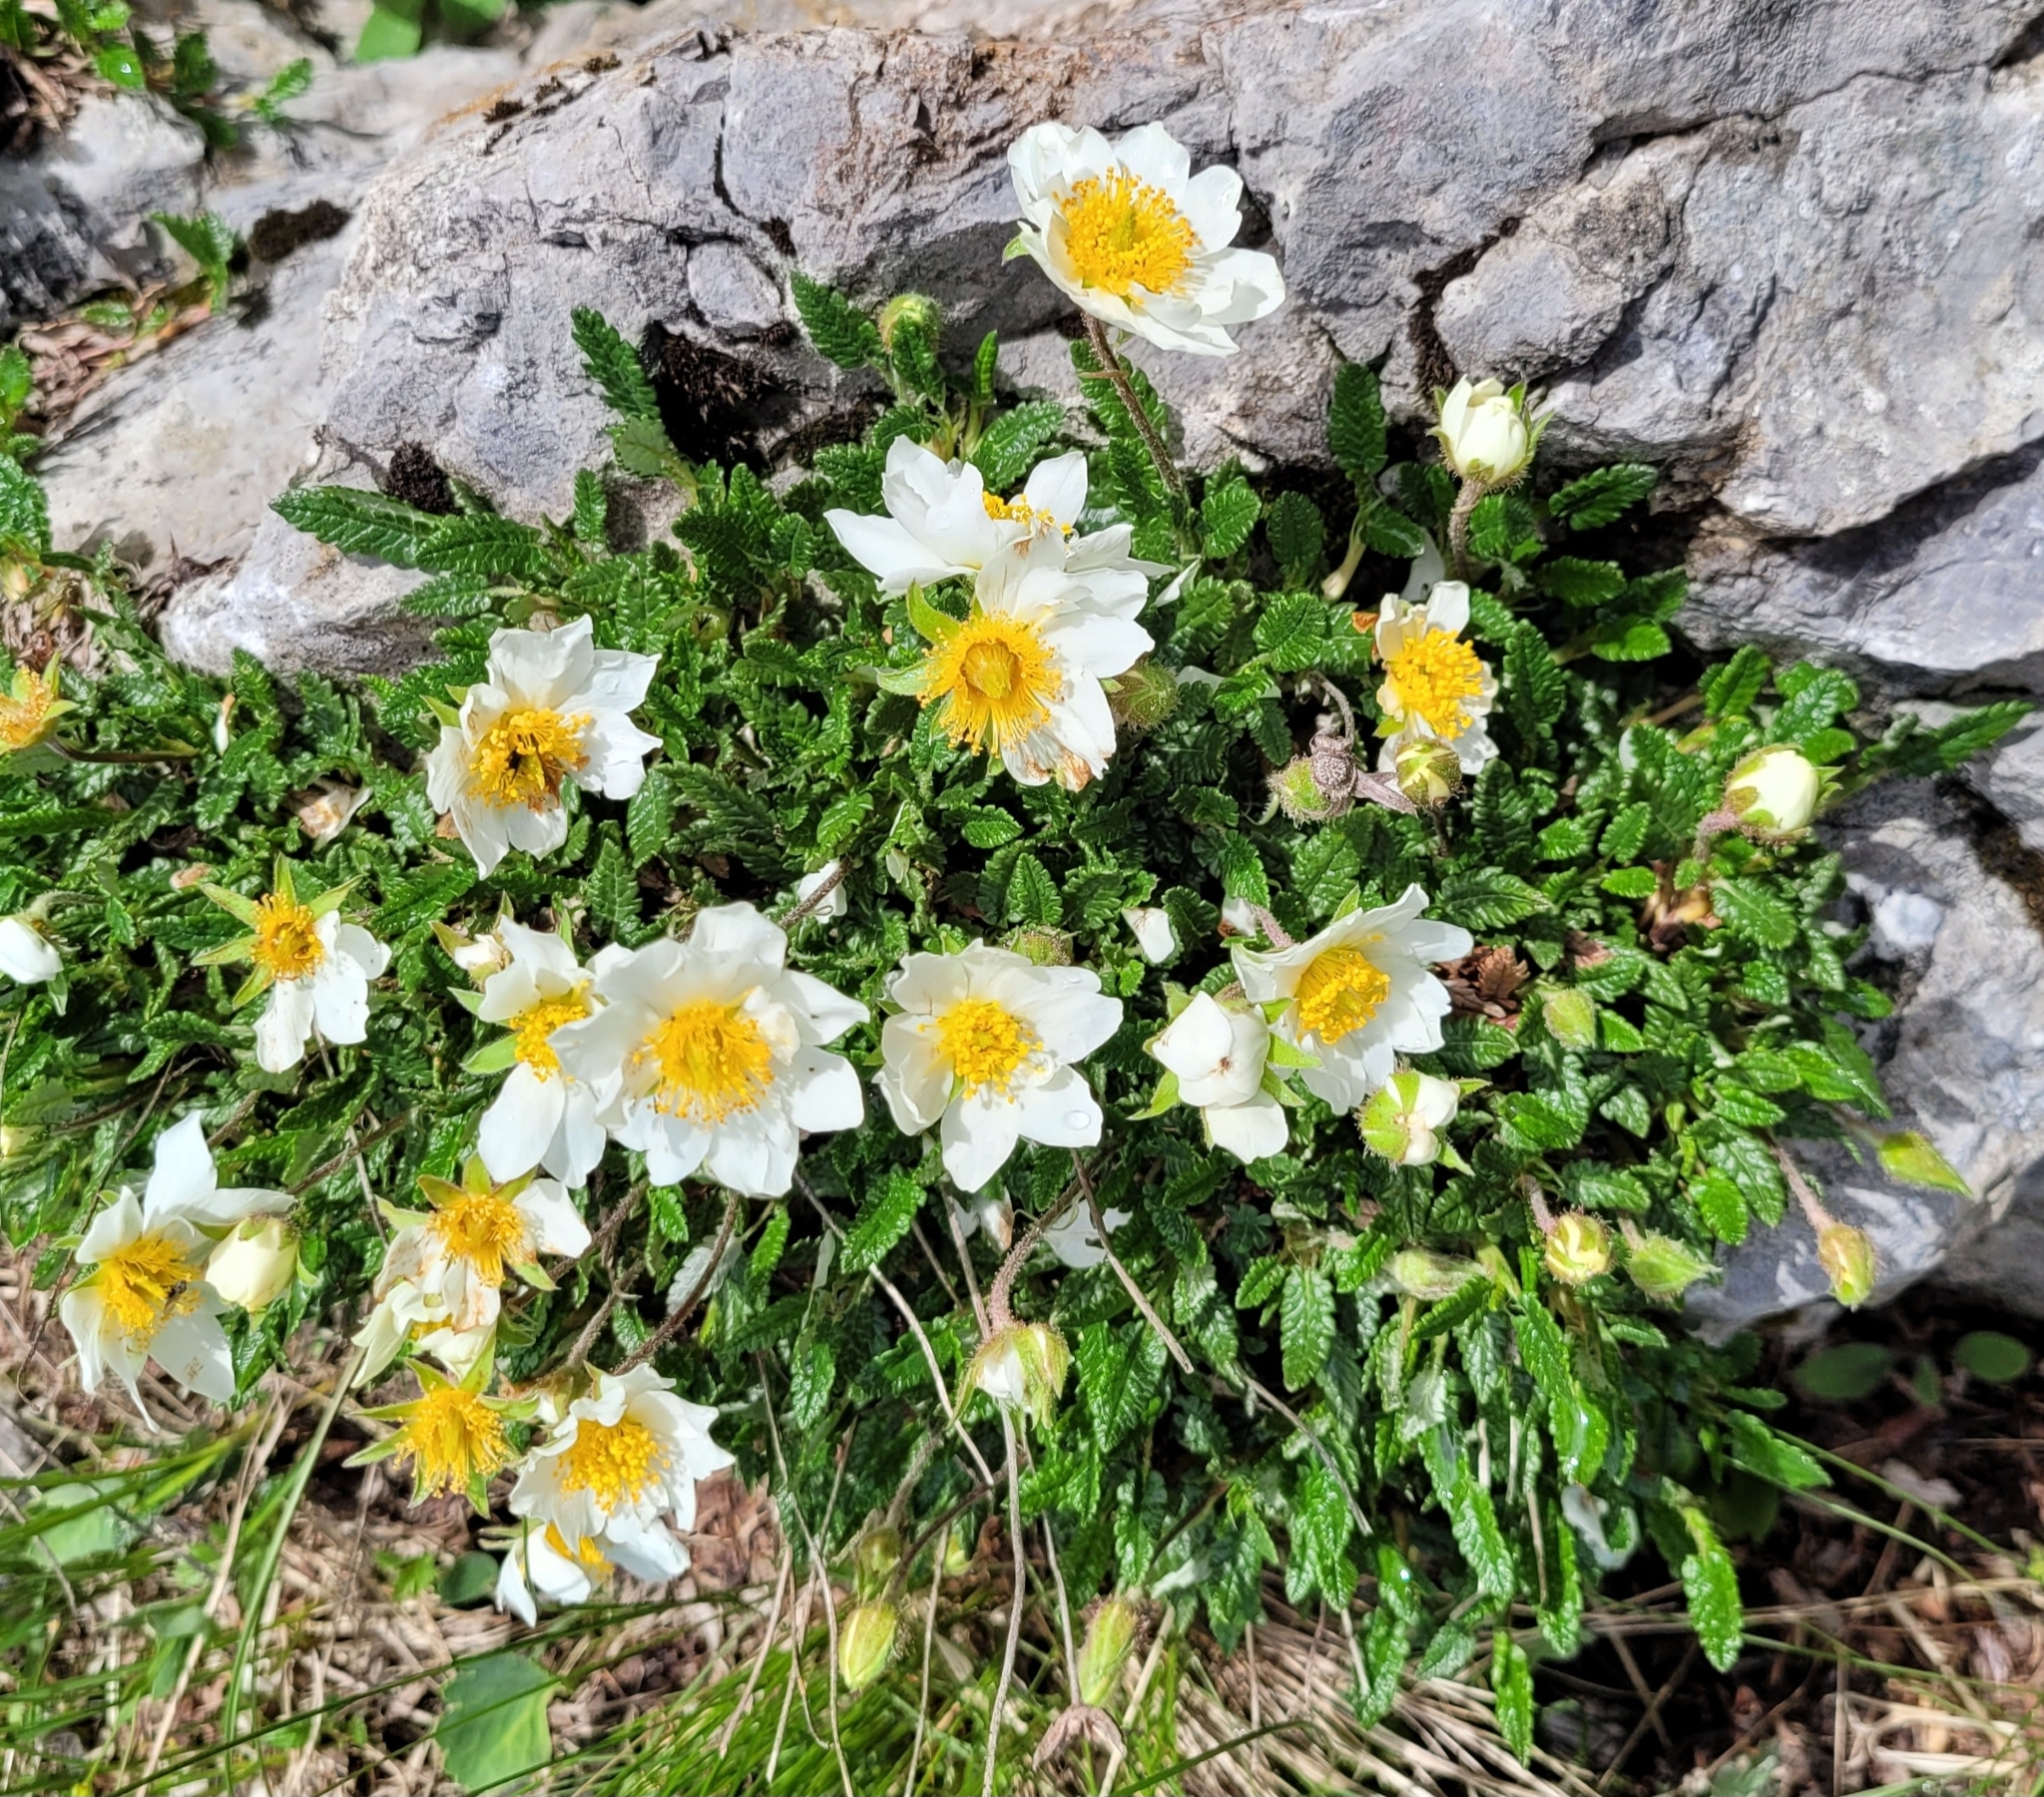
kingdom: Plantae
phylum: Tracheophyta
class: Magnoliopsida
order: Rosales
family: Rosaceae
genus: Dryas
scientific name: Dryas octopetala
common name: Eight-petal mountain-avens
